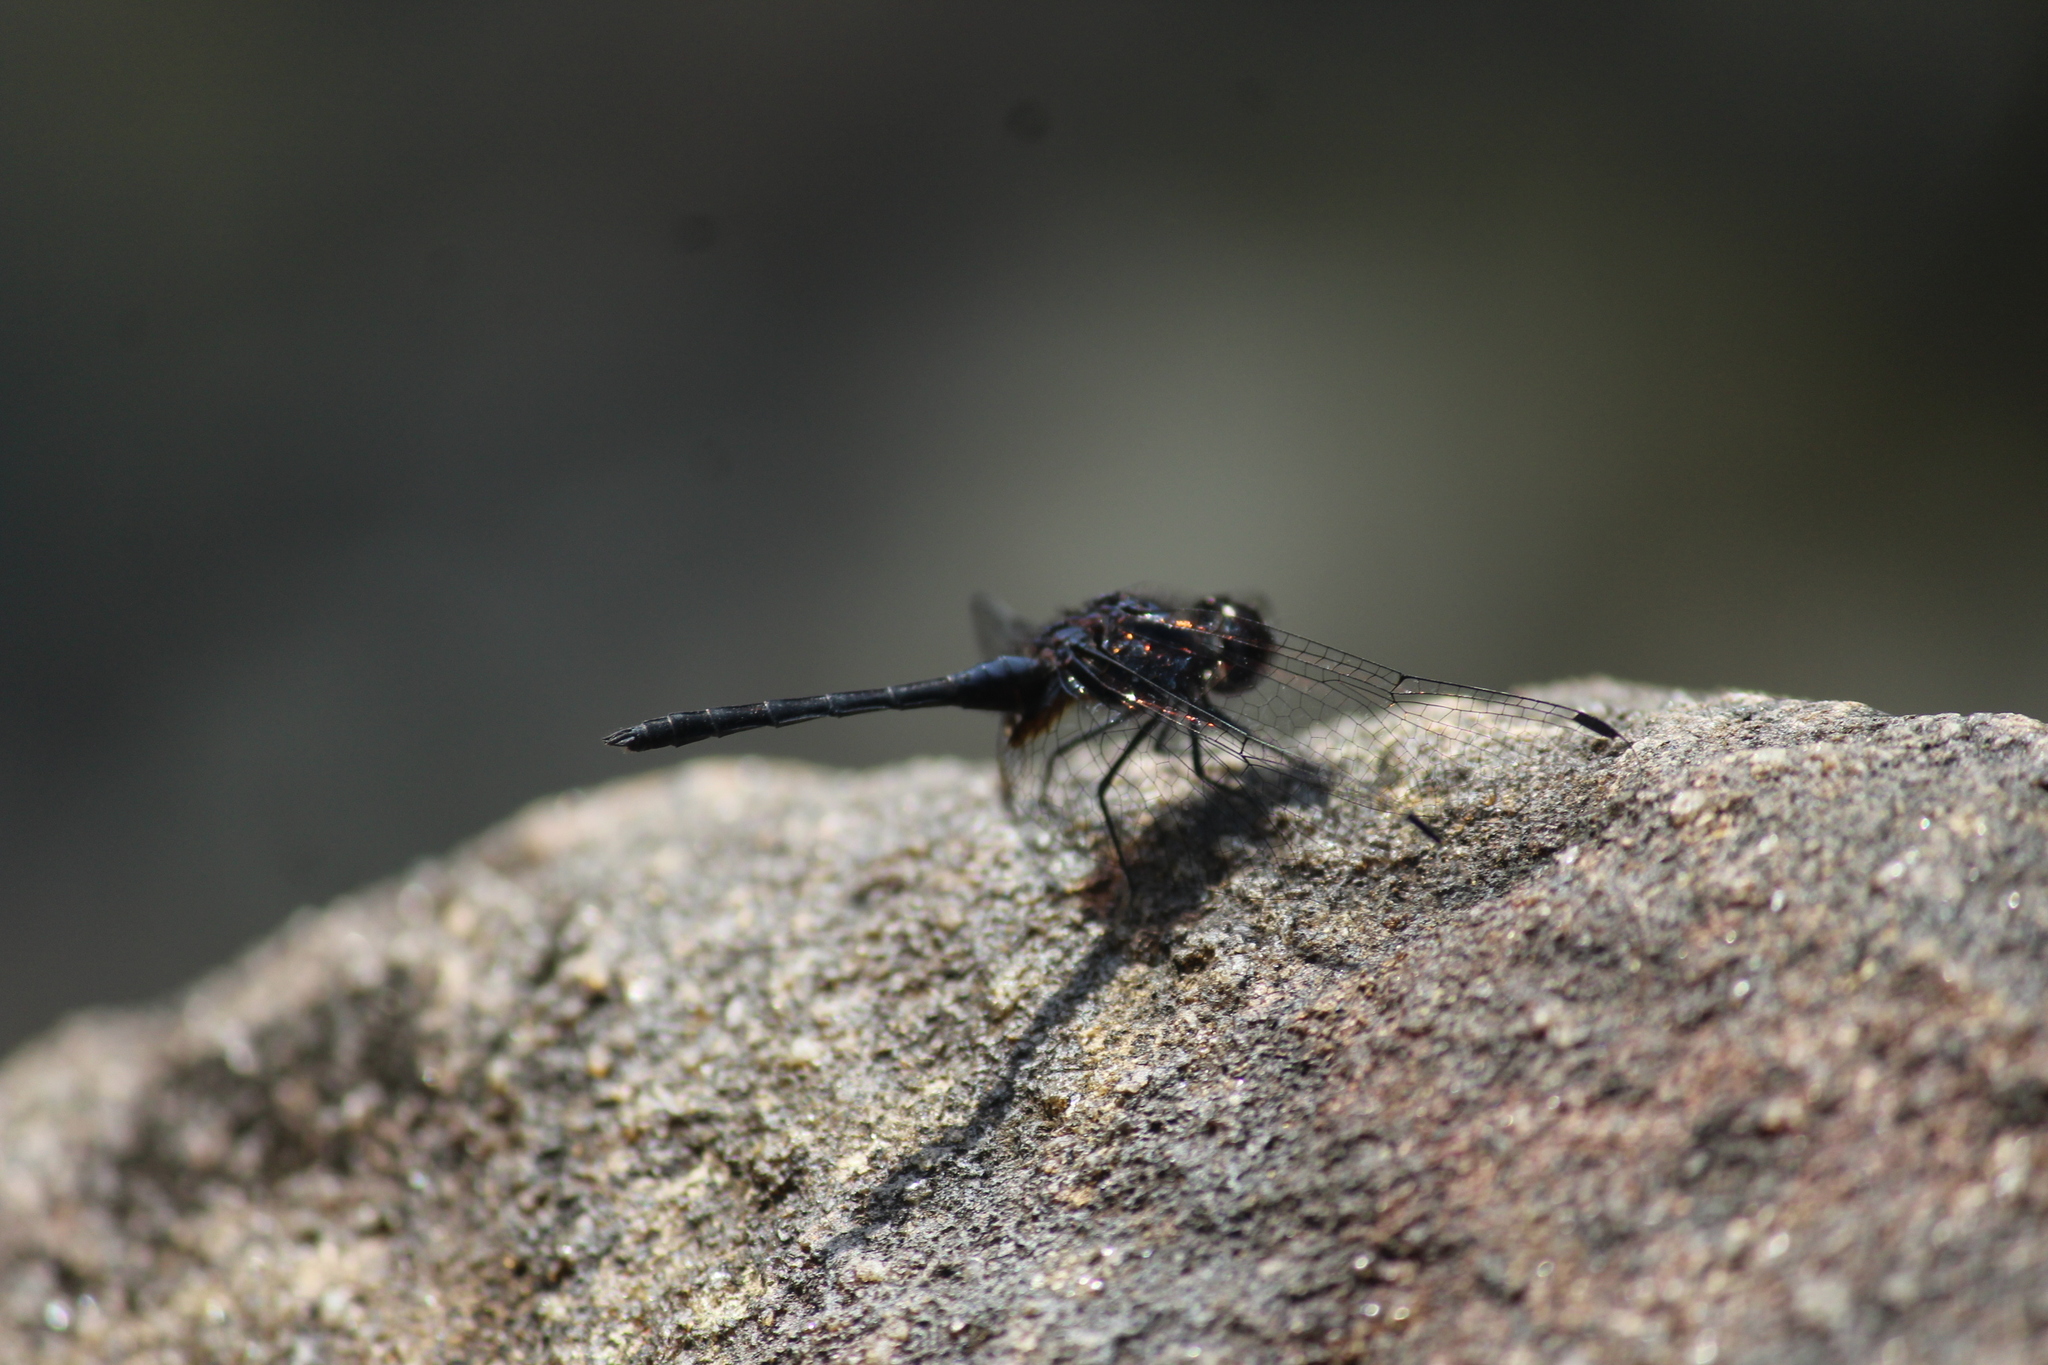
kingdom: Animalia
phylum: Arthropoda
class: Insecta
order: Odonata
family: Libellulidae
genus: Trithemis
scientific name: Trithemis festiva
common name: Indigo dropwing
